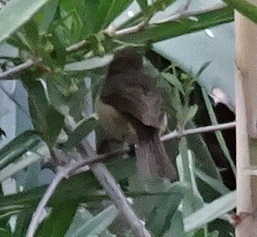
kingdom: Animalia
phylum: Chordata
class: Aves
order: Passeriformes
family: Phylloscopidae
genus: Phylloscopus
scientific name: Phylloscopus canariensis
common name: Canary islands chiffchaff
